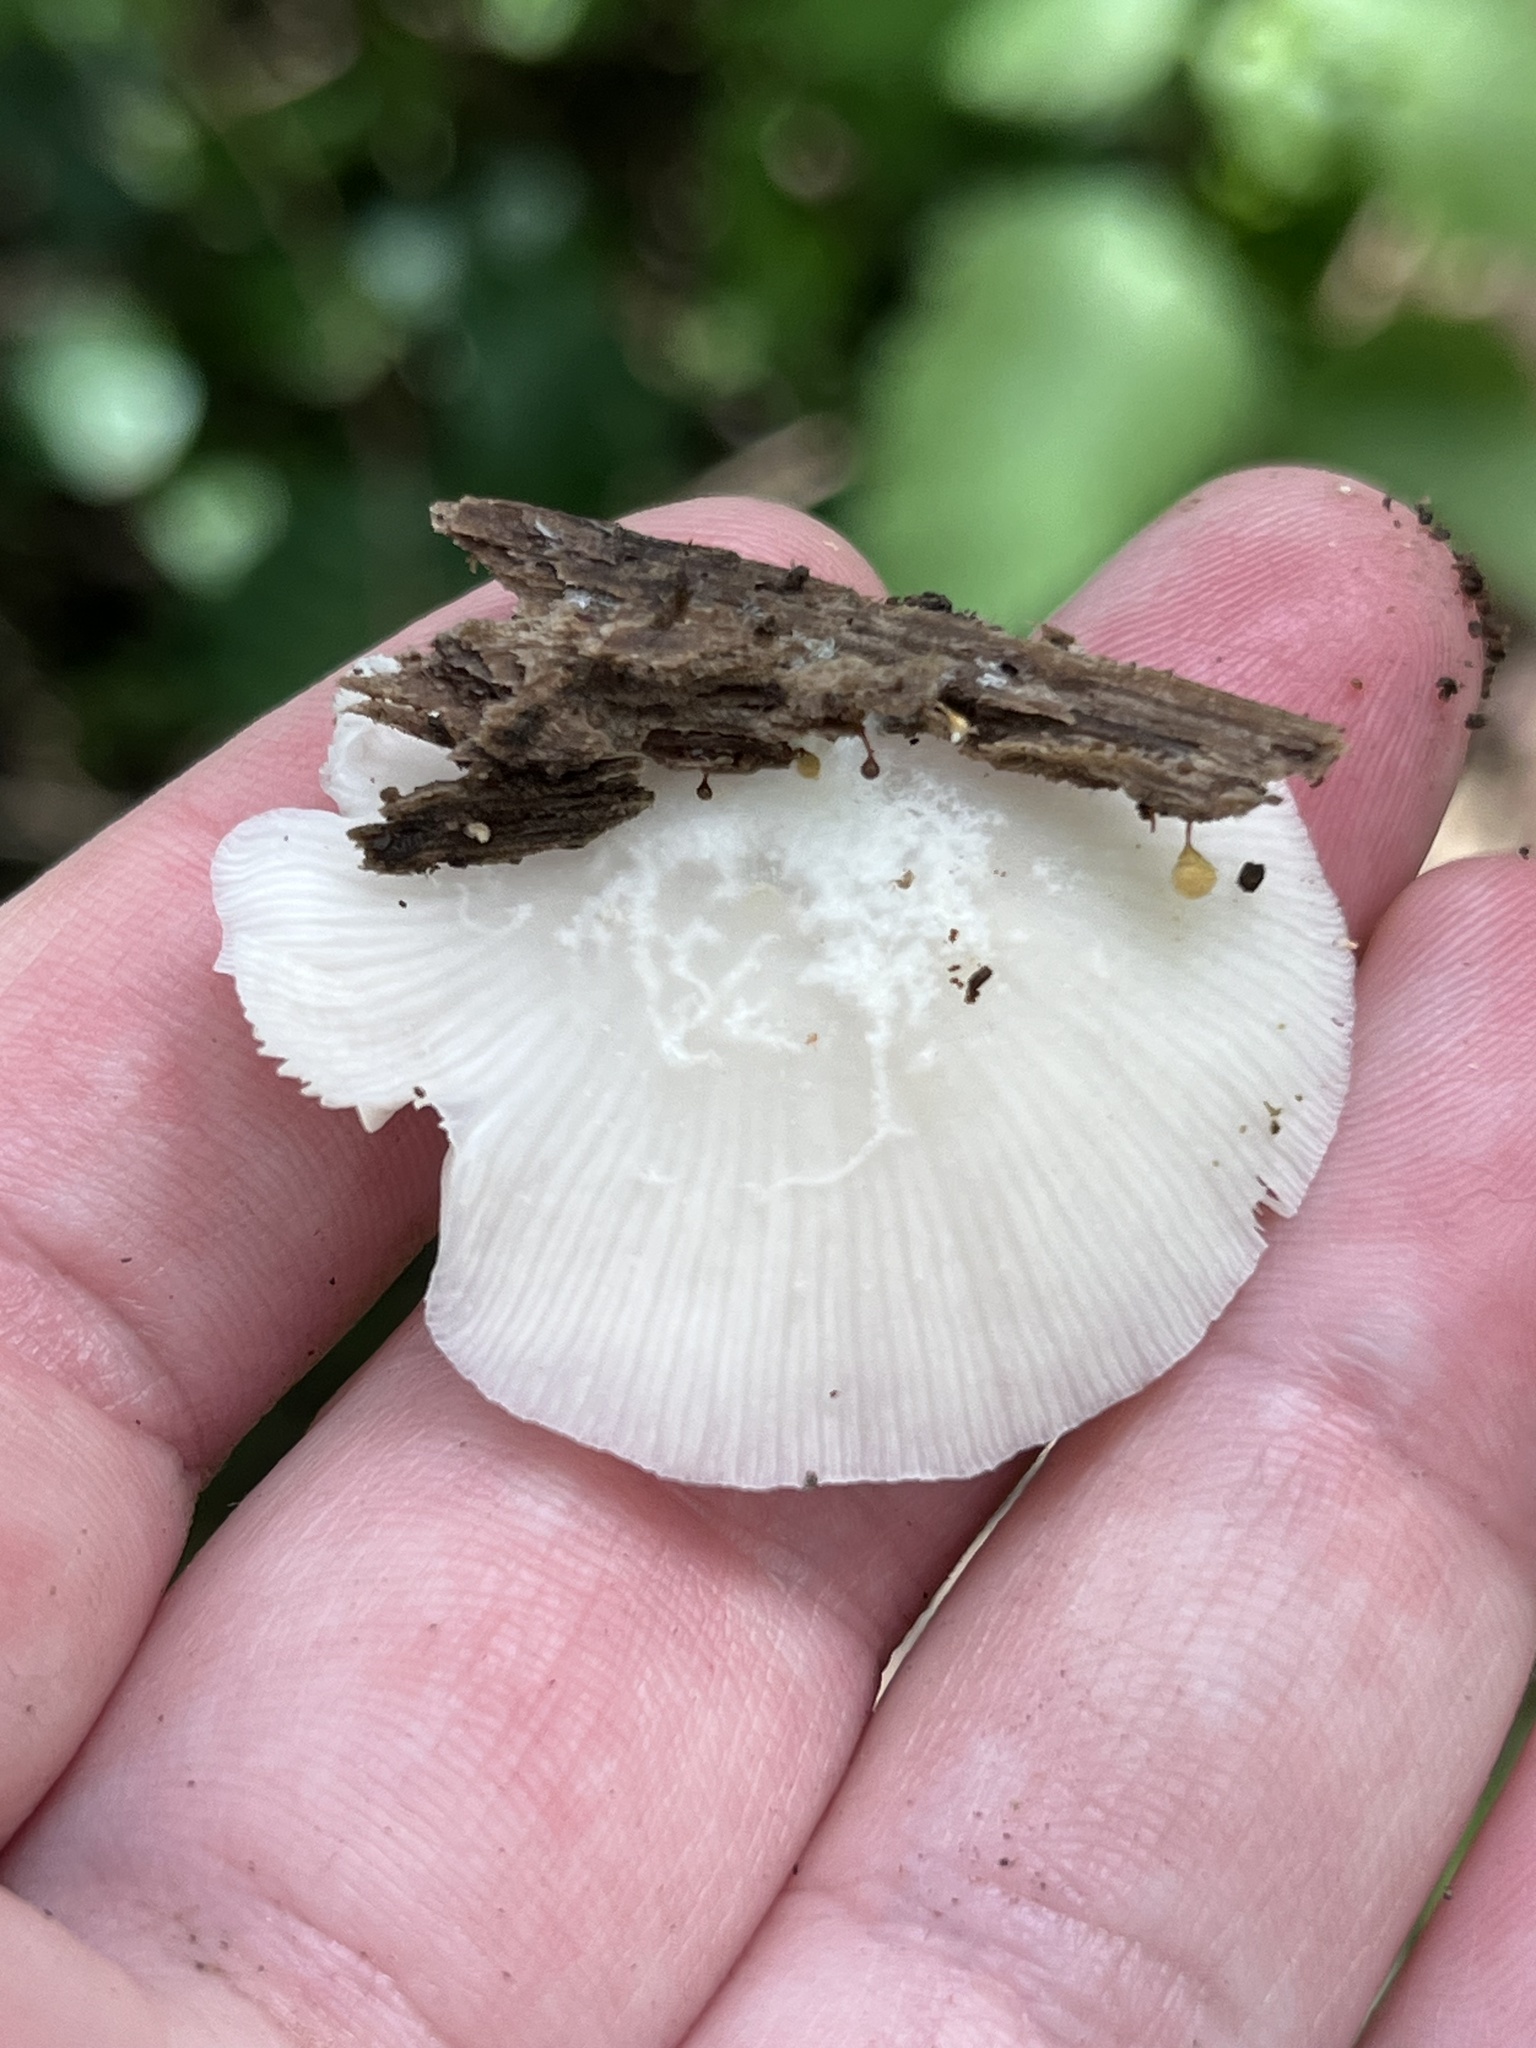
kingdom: Fungi
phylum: Basidiomycota
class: Agaricomycetes
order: Agaricales
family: Crepidotaceae
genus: Crepidotus
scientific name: Crepidotus applanatus
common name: Flat crep
